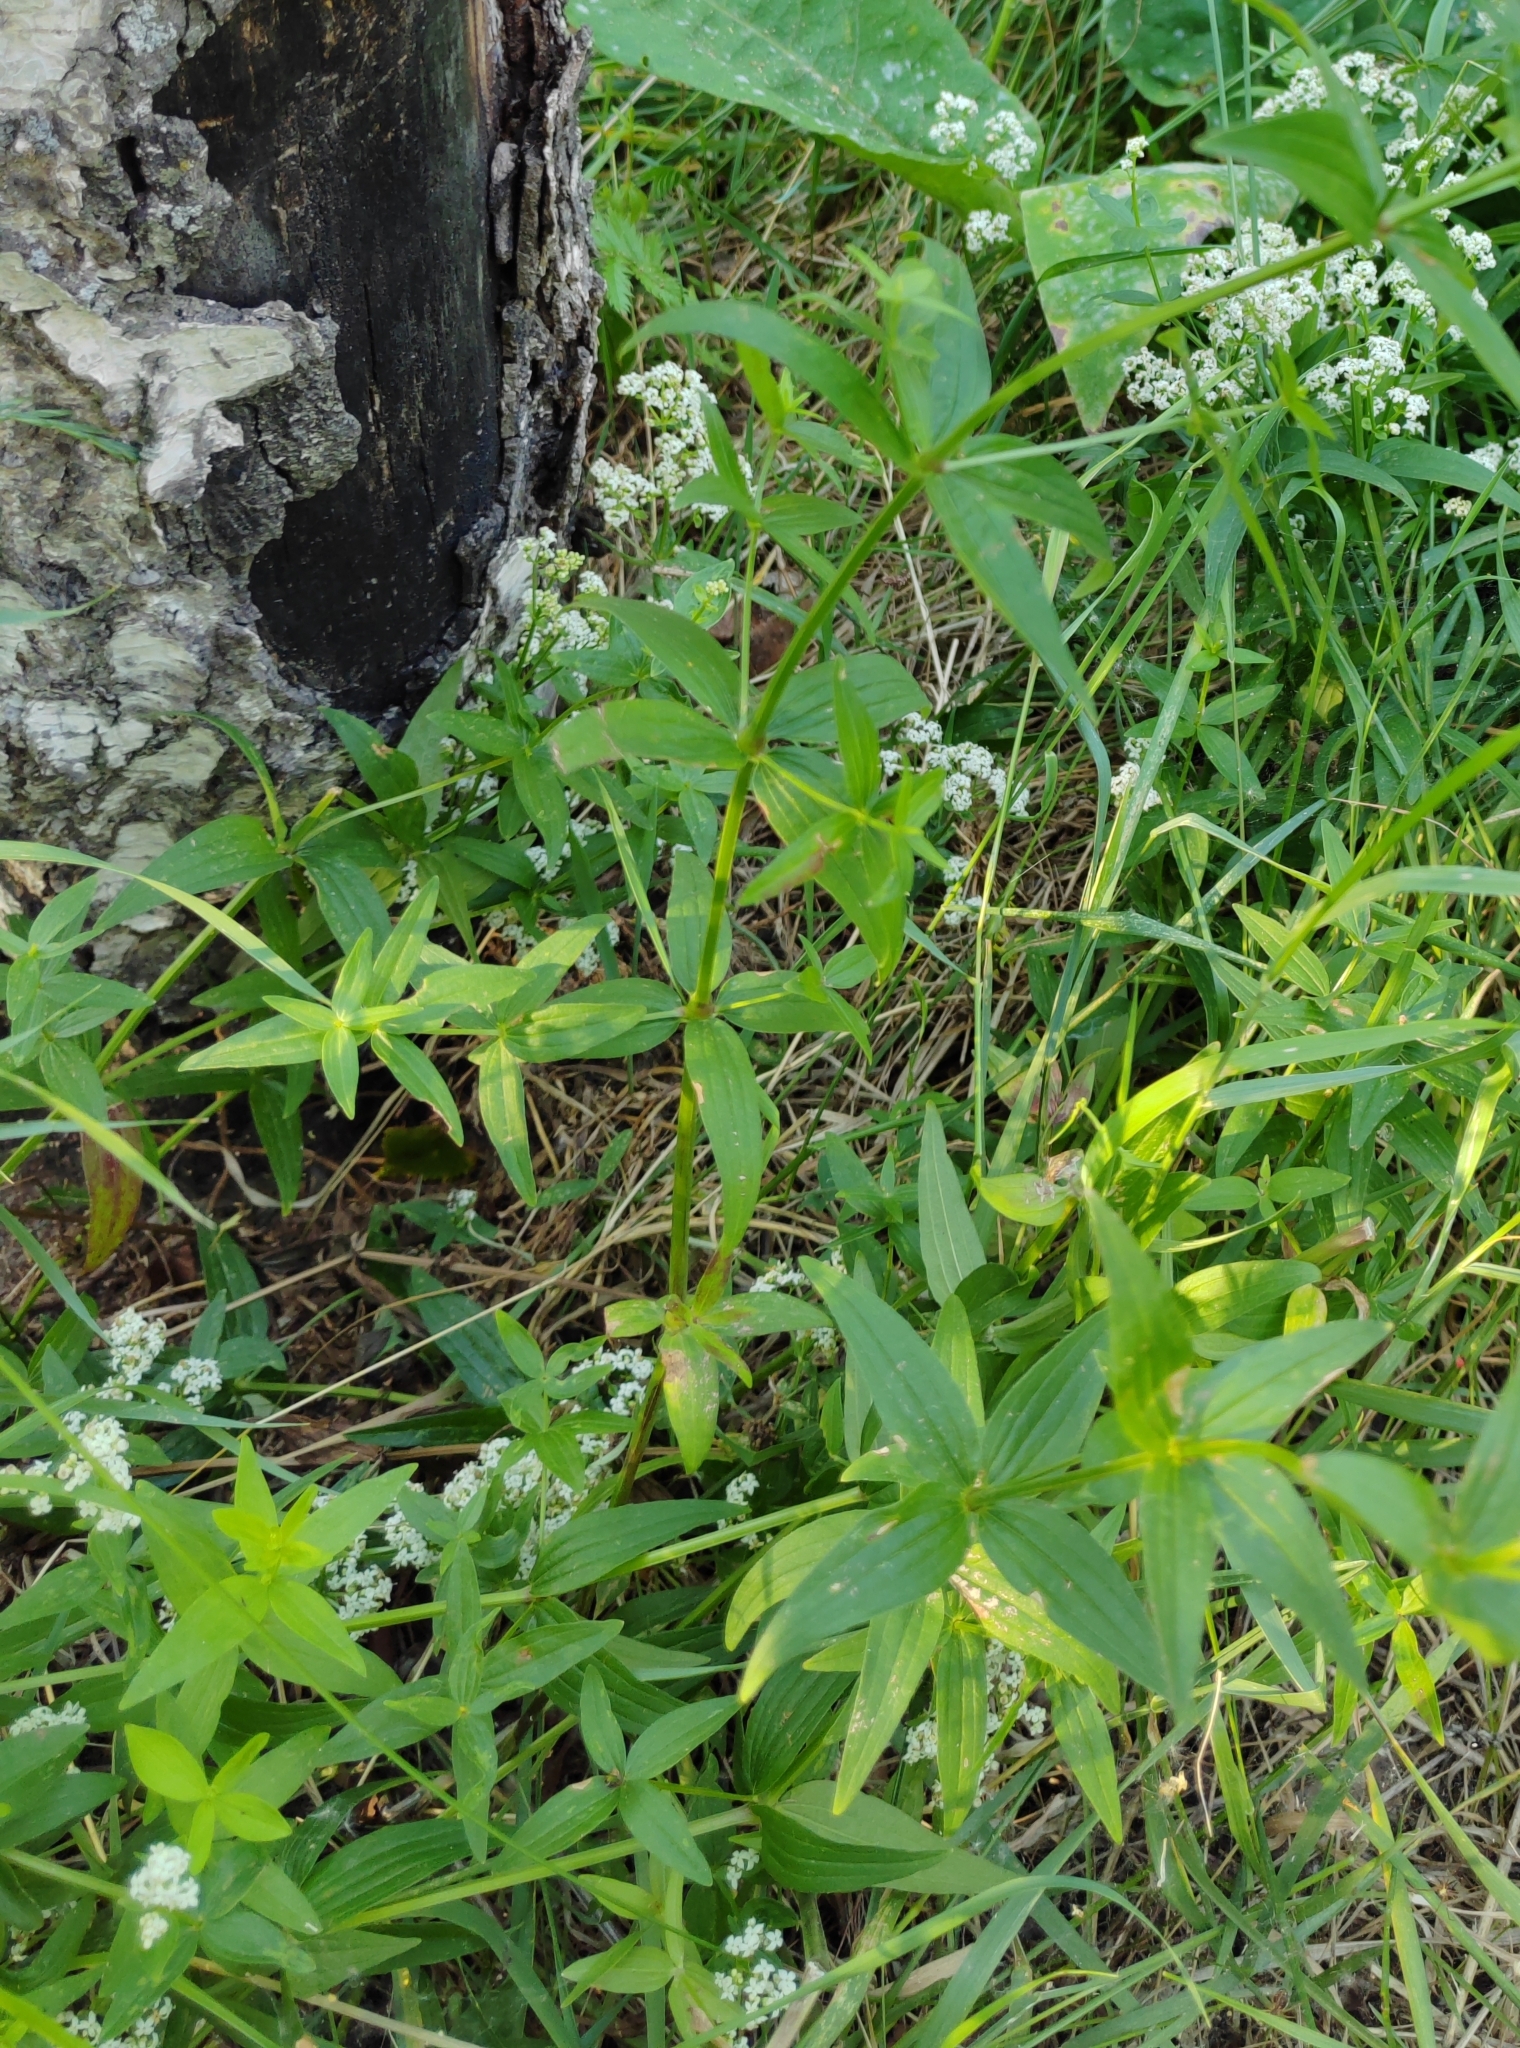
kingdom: Plantae
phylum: Tracheophyta
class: Magnoliopsida
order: Gentianales
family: Rubiaceae
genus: Galium
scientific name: Galium rubioides
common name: European bedstraw
